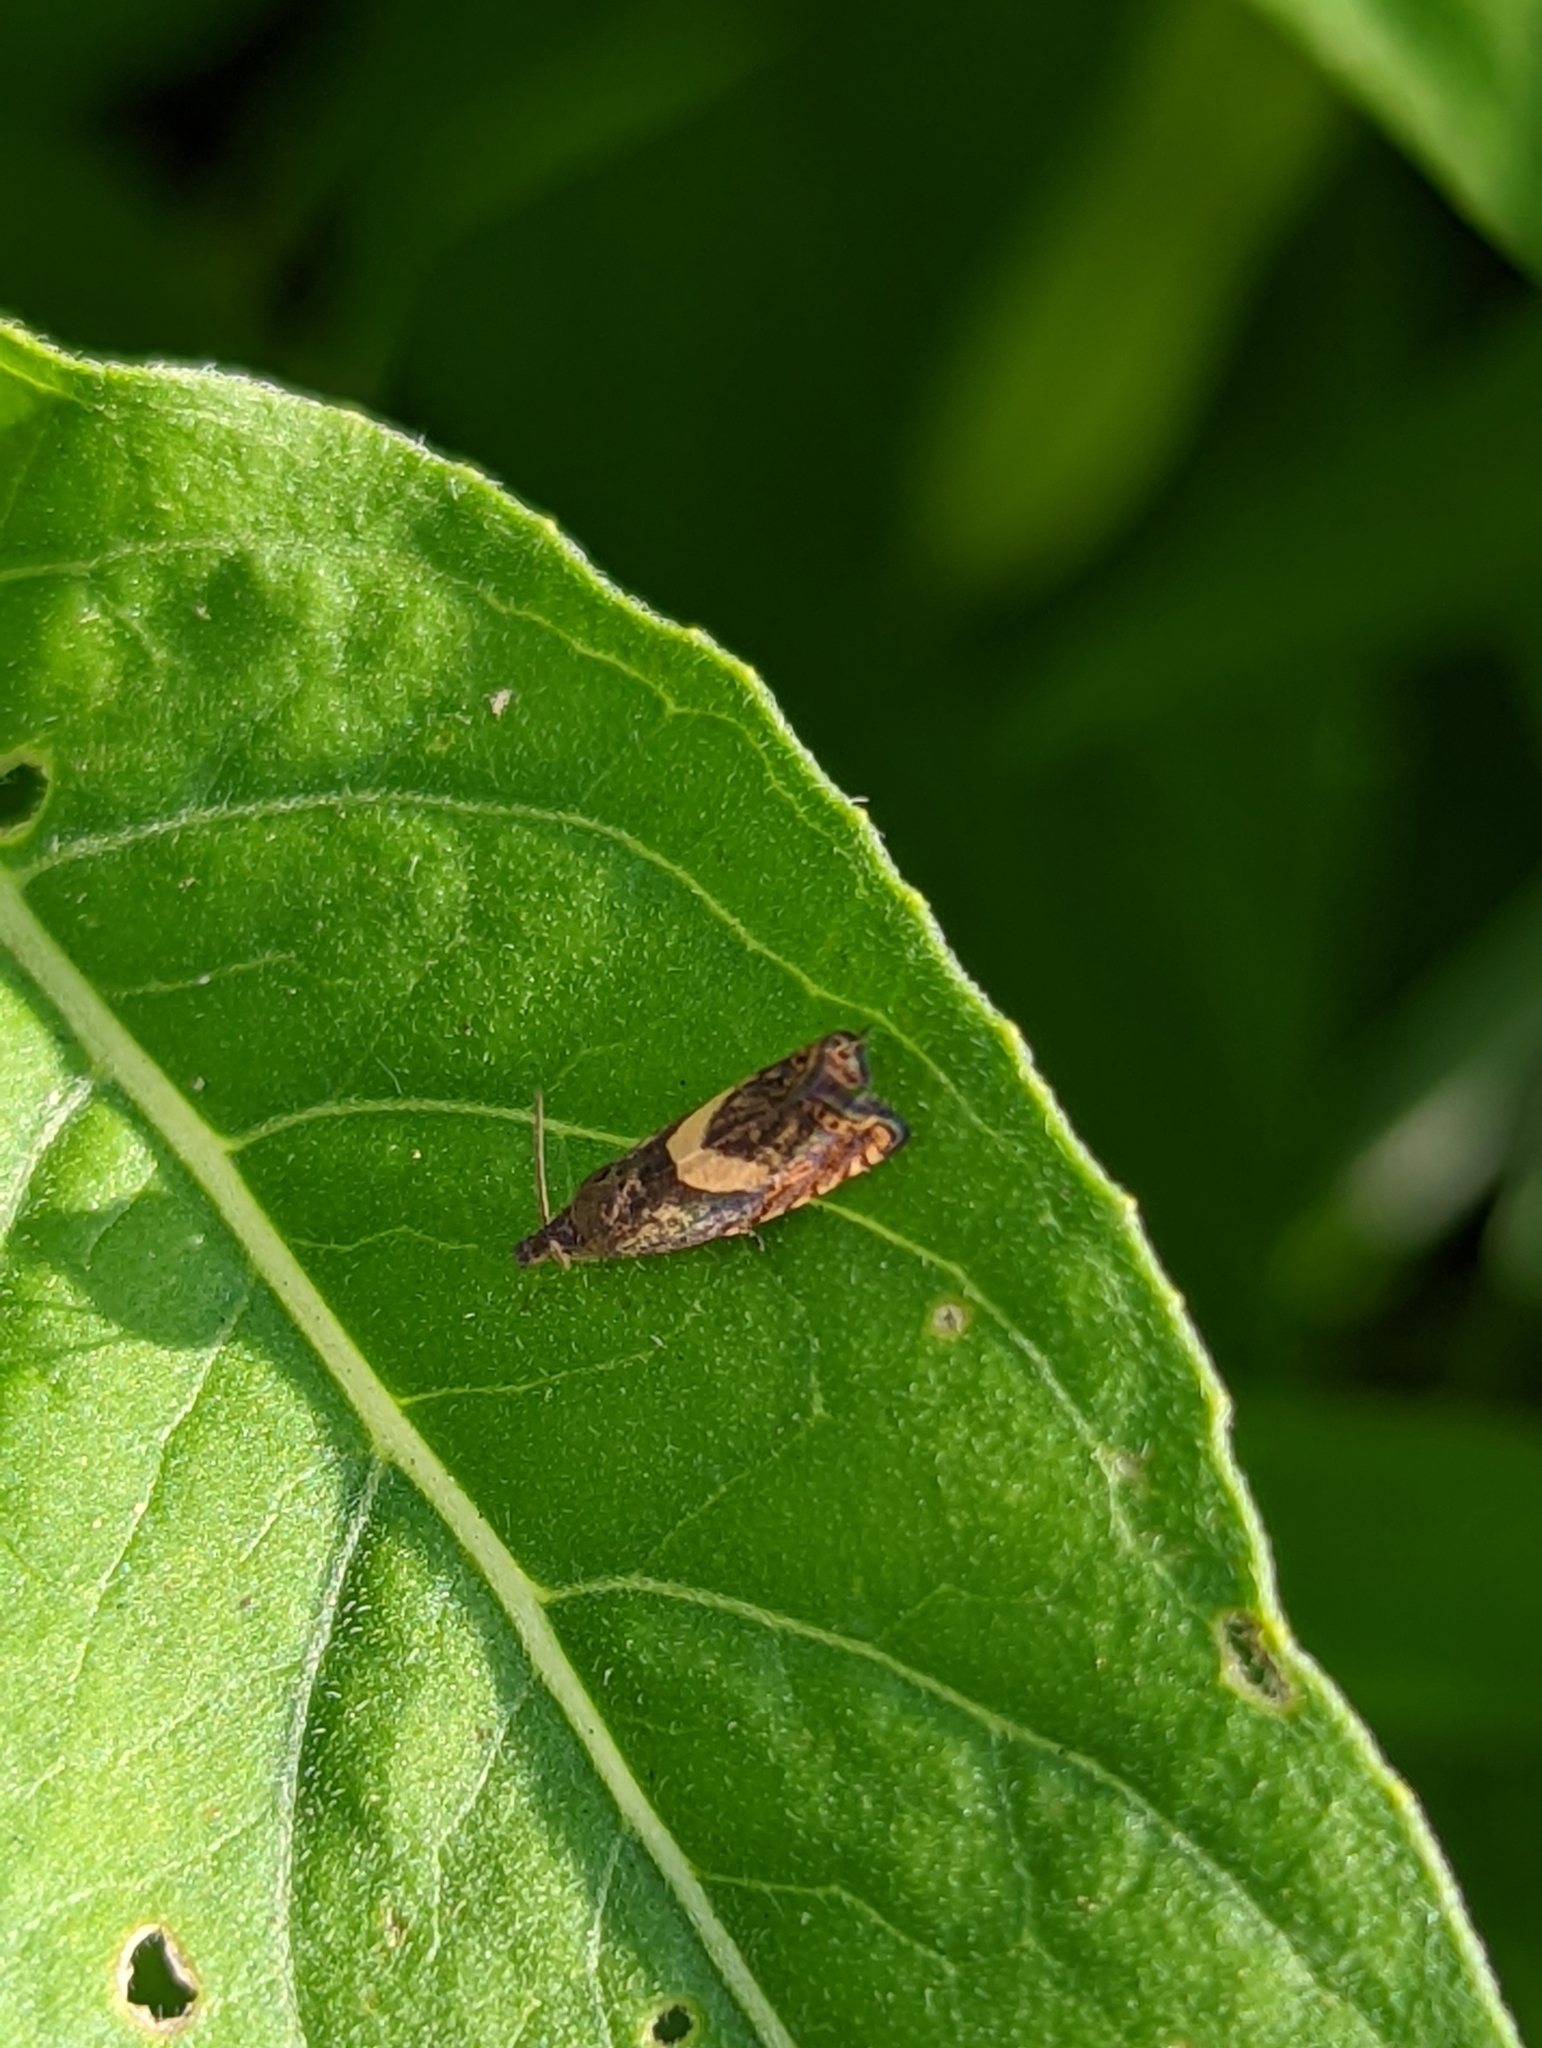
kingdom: Animalia
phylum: Arthropoda
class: Insecta
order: Lepidoptera
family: Tortricidae
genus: Dichrorampha
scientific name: Dichrorampha petiverella
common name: Common drill
